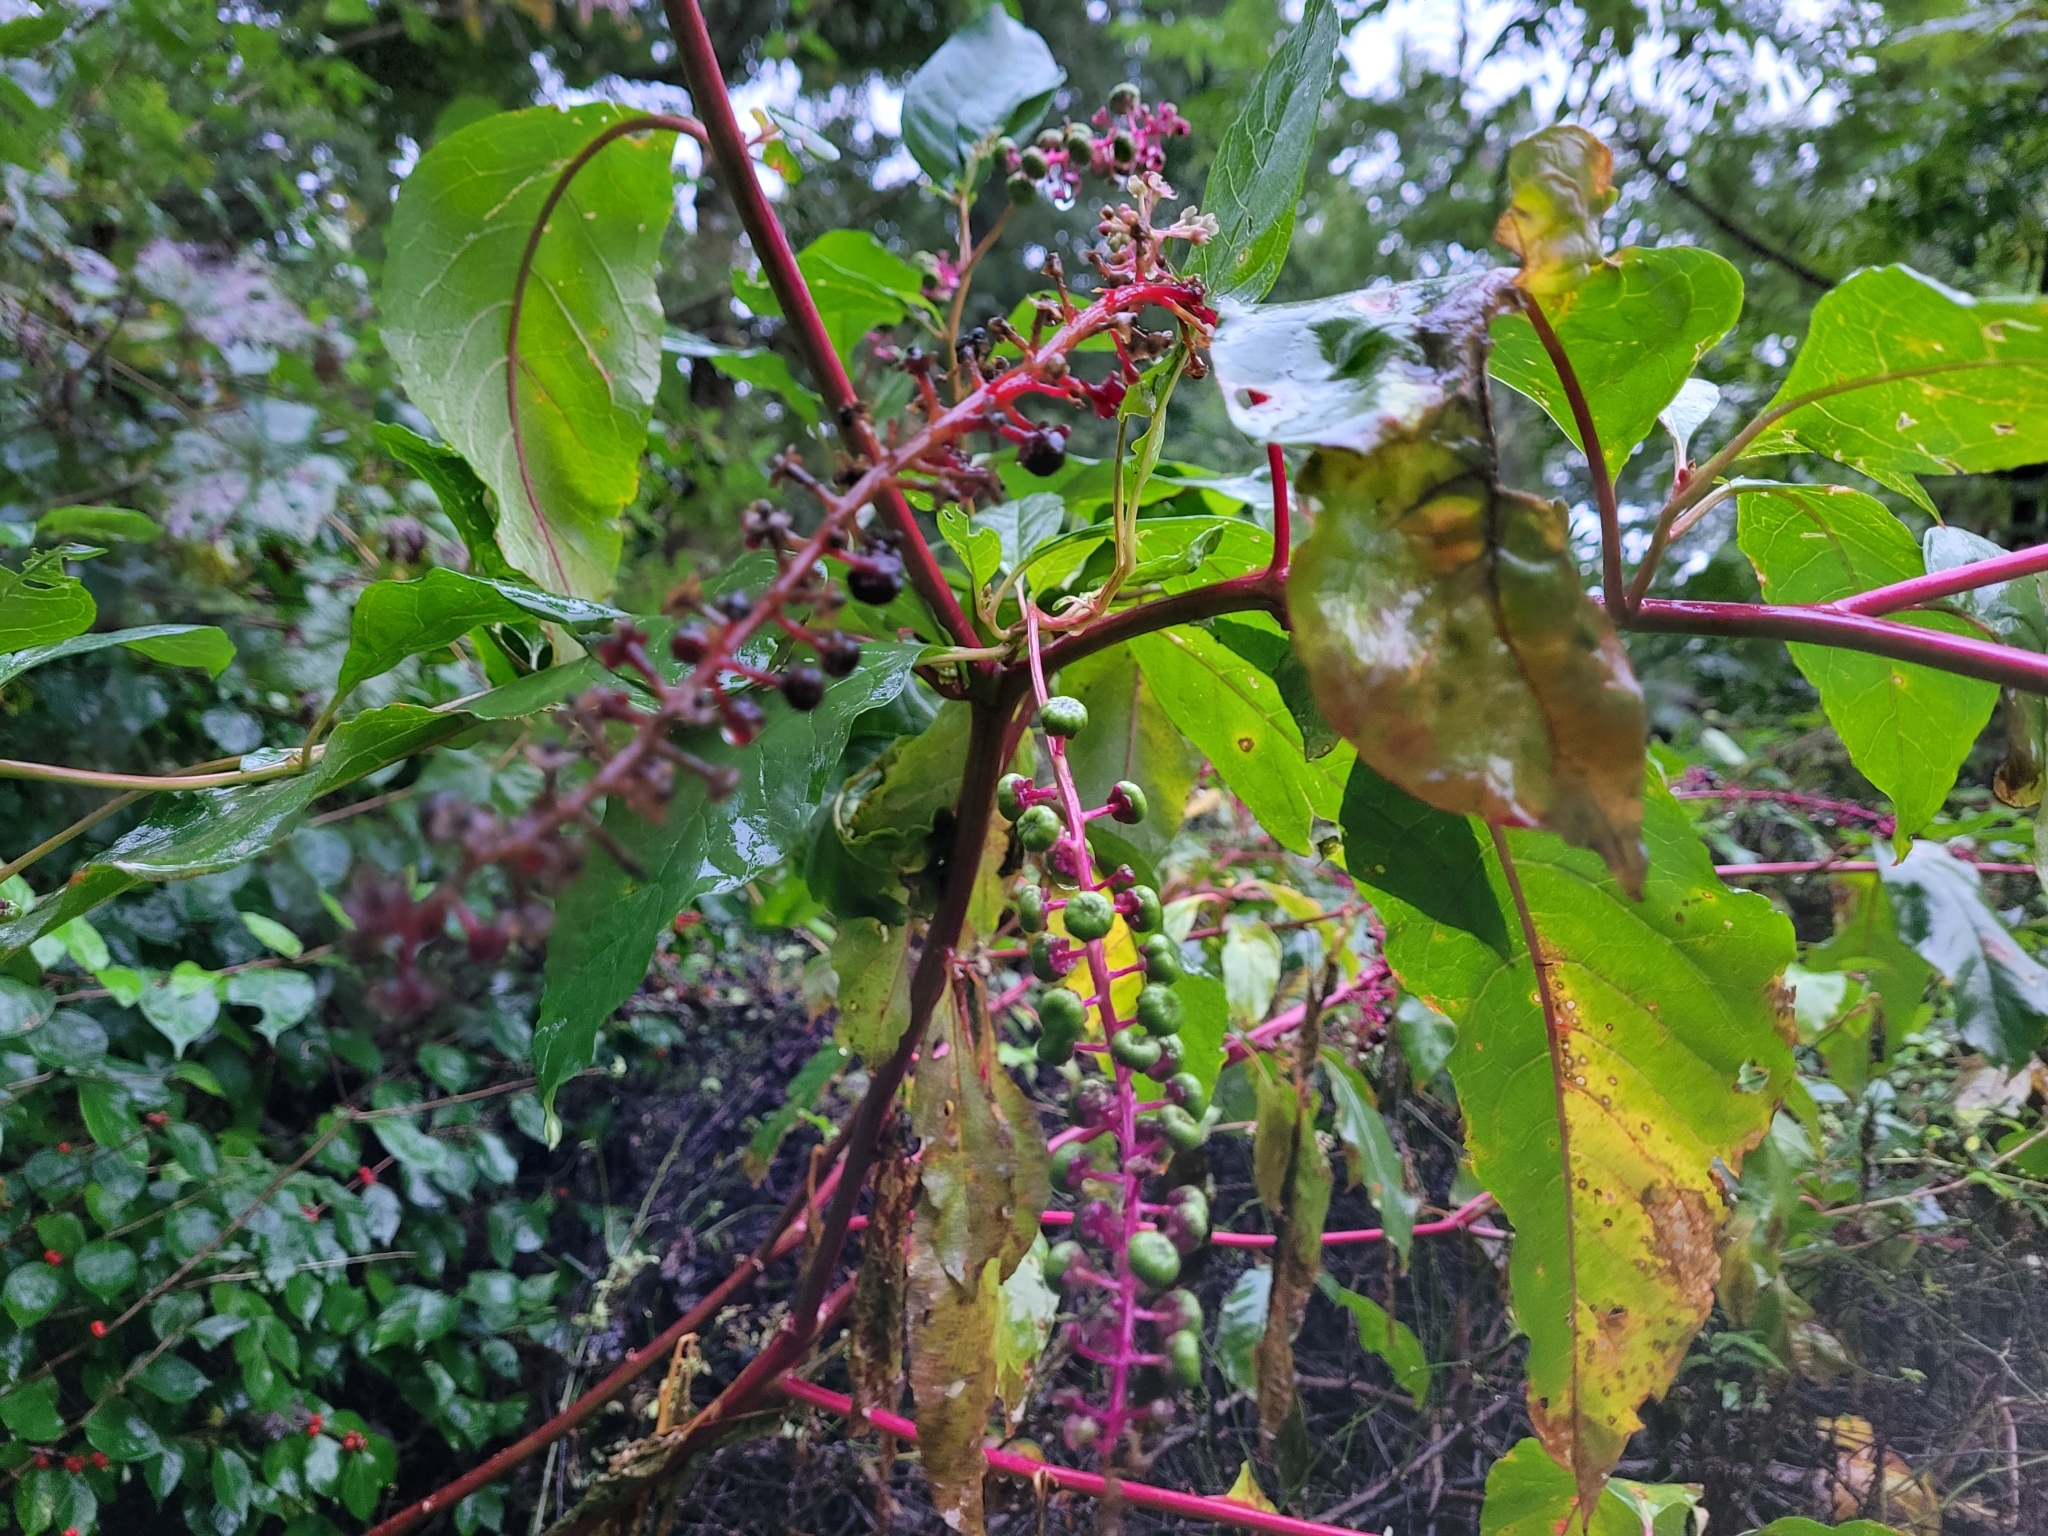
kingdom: Plantae
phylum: Tracheophyta
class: Magnoliopsida
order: Caryophyllales
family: Phytolaccaceae
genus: Phytolacca
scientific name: Phytolacca americana
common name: American pokeweed
